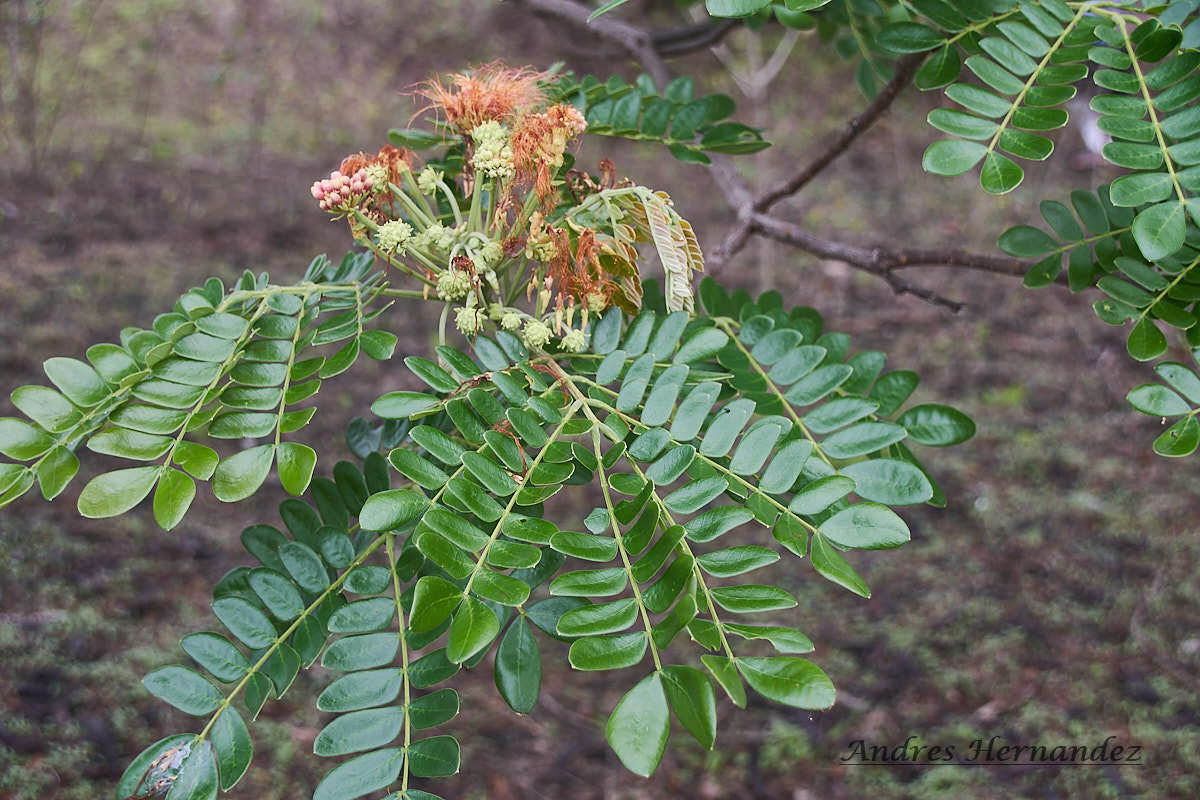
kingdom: Plantae
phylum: Tracheophyta
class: Magnoliopsida
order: Fabales
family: Fabaceae
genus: Samanea
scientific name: Samanea saman
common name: Raintree
